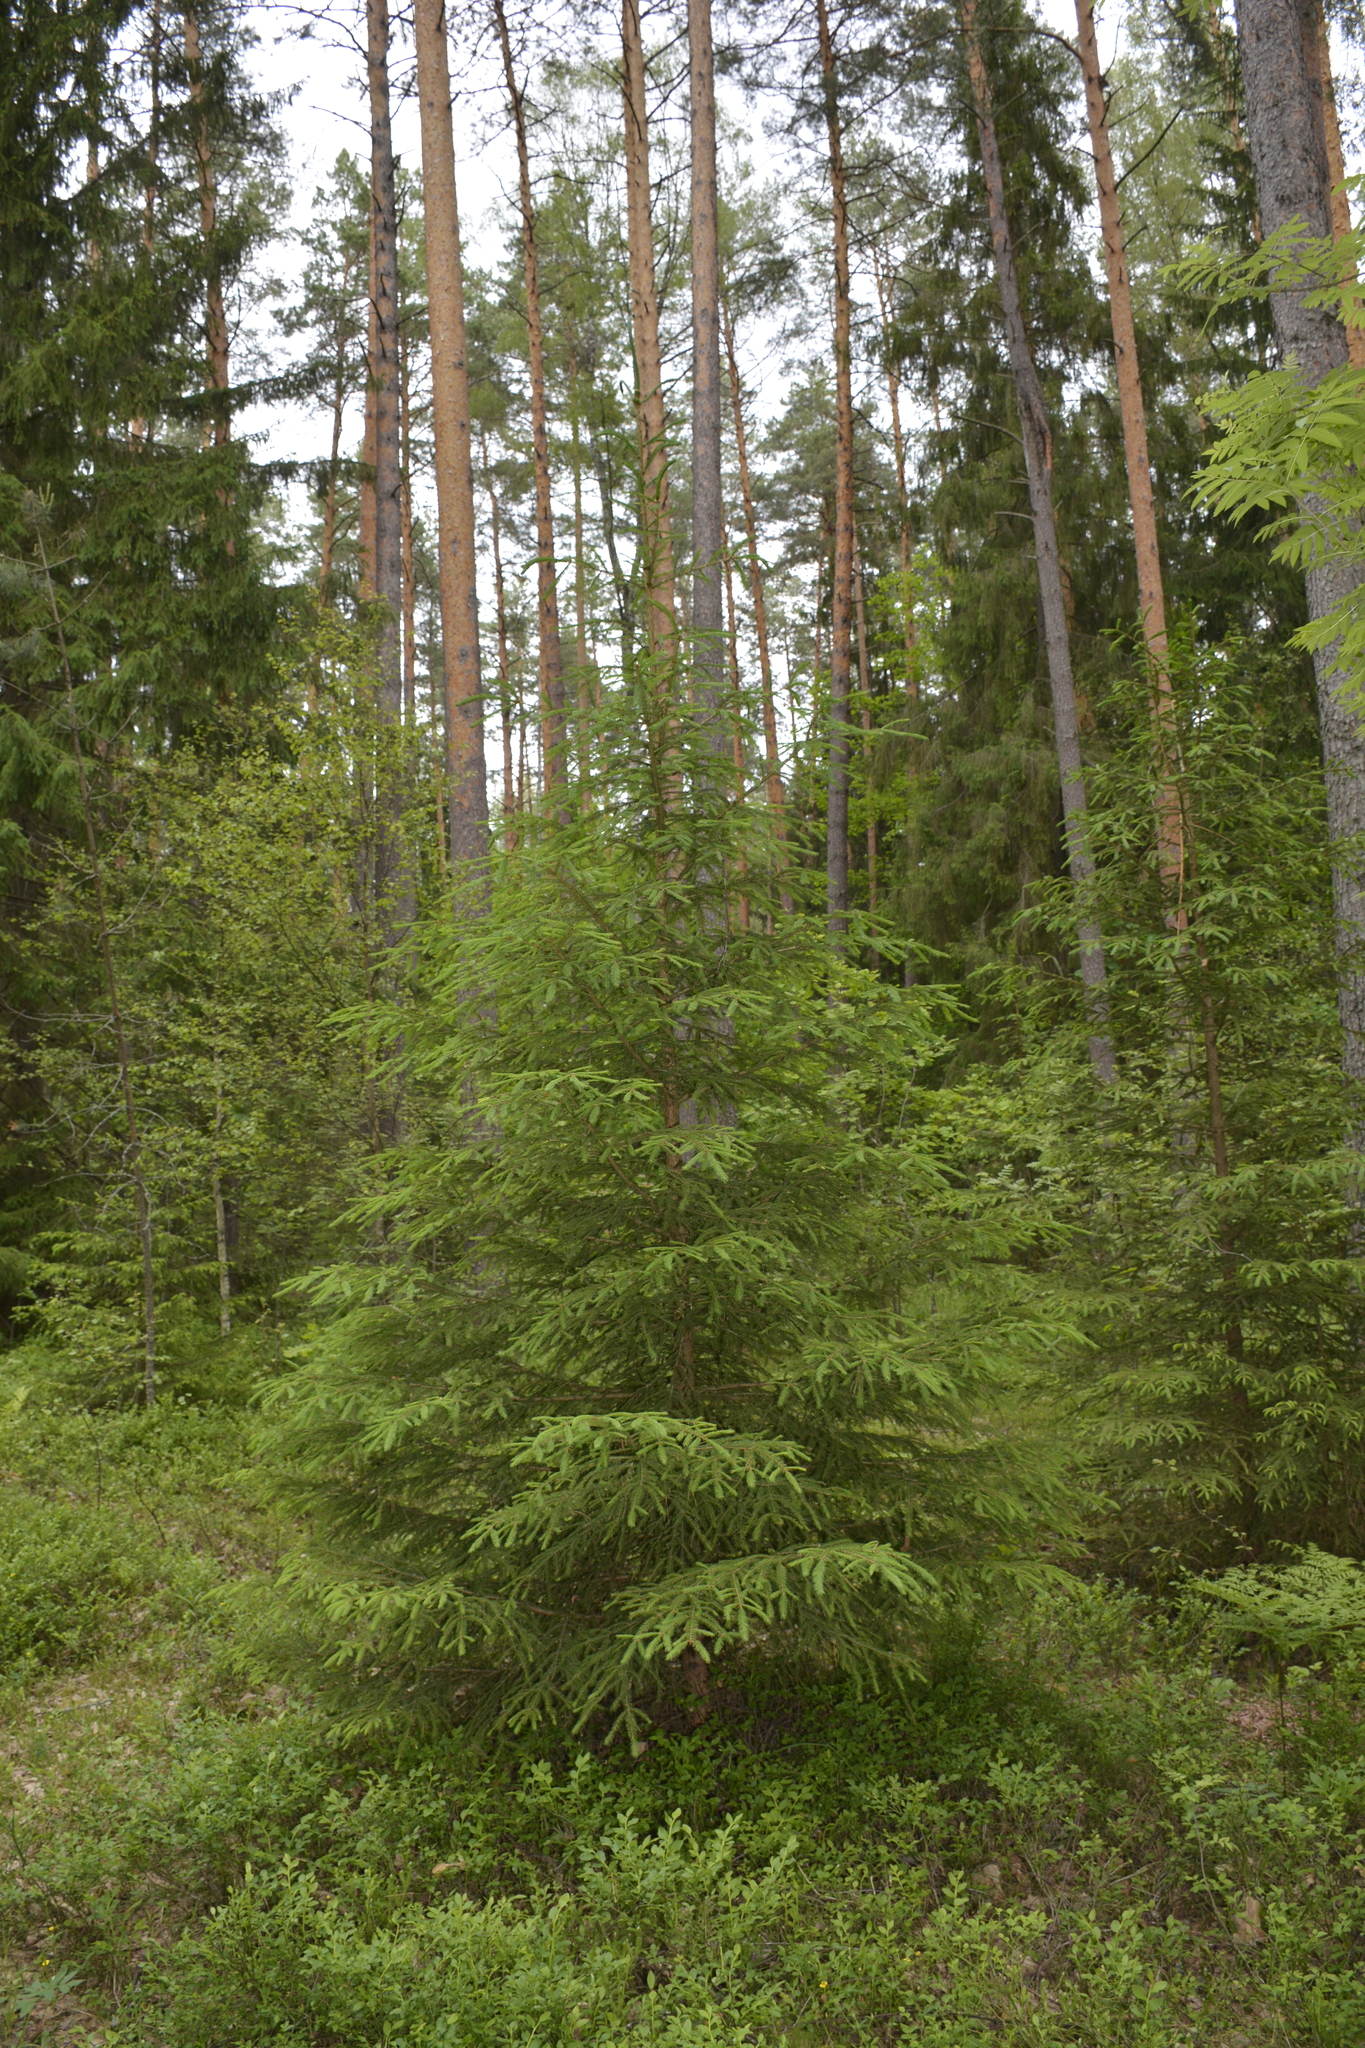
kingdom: Plantae
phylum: Tracheophyta
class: Pinopsida
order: Pinales
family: Pinaceae
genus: Picea
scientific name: Picea abies
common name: Norway spruce
